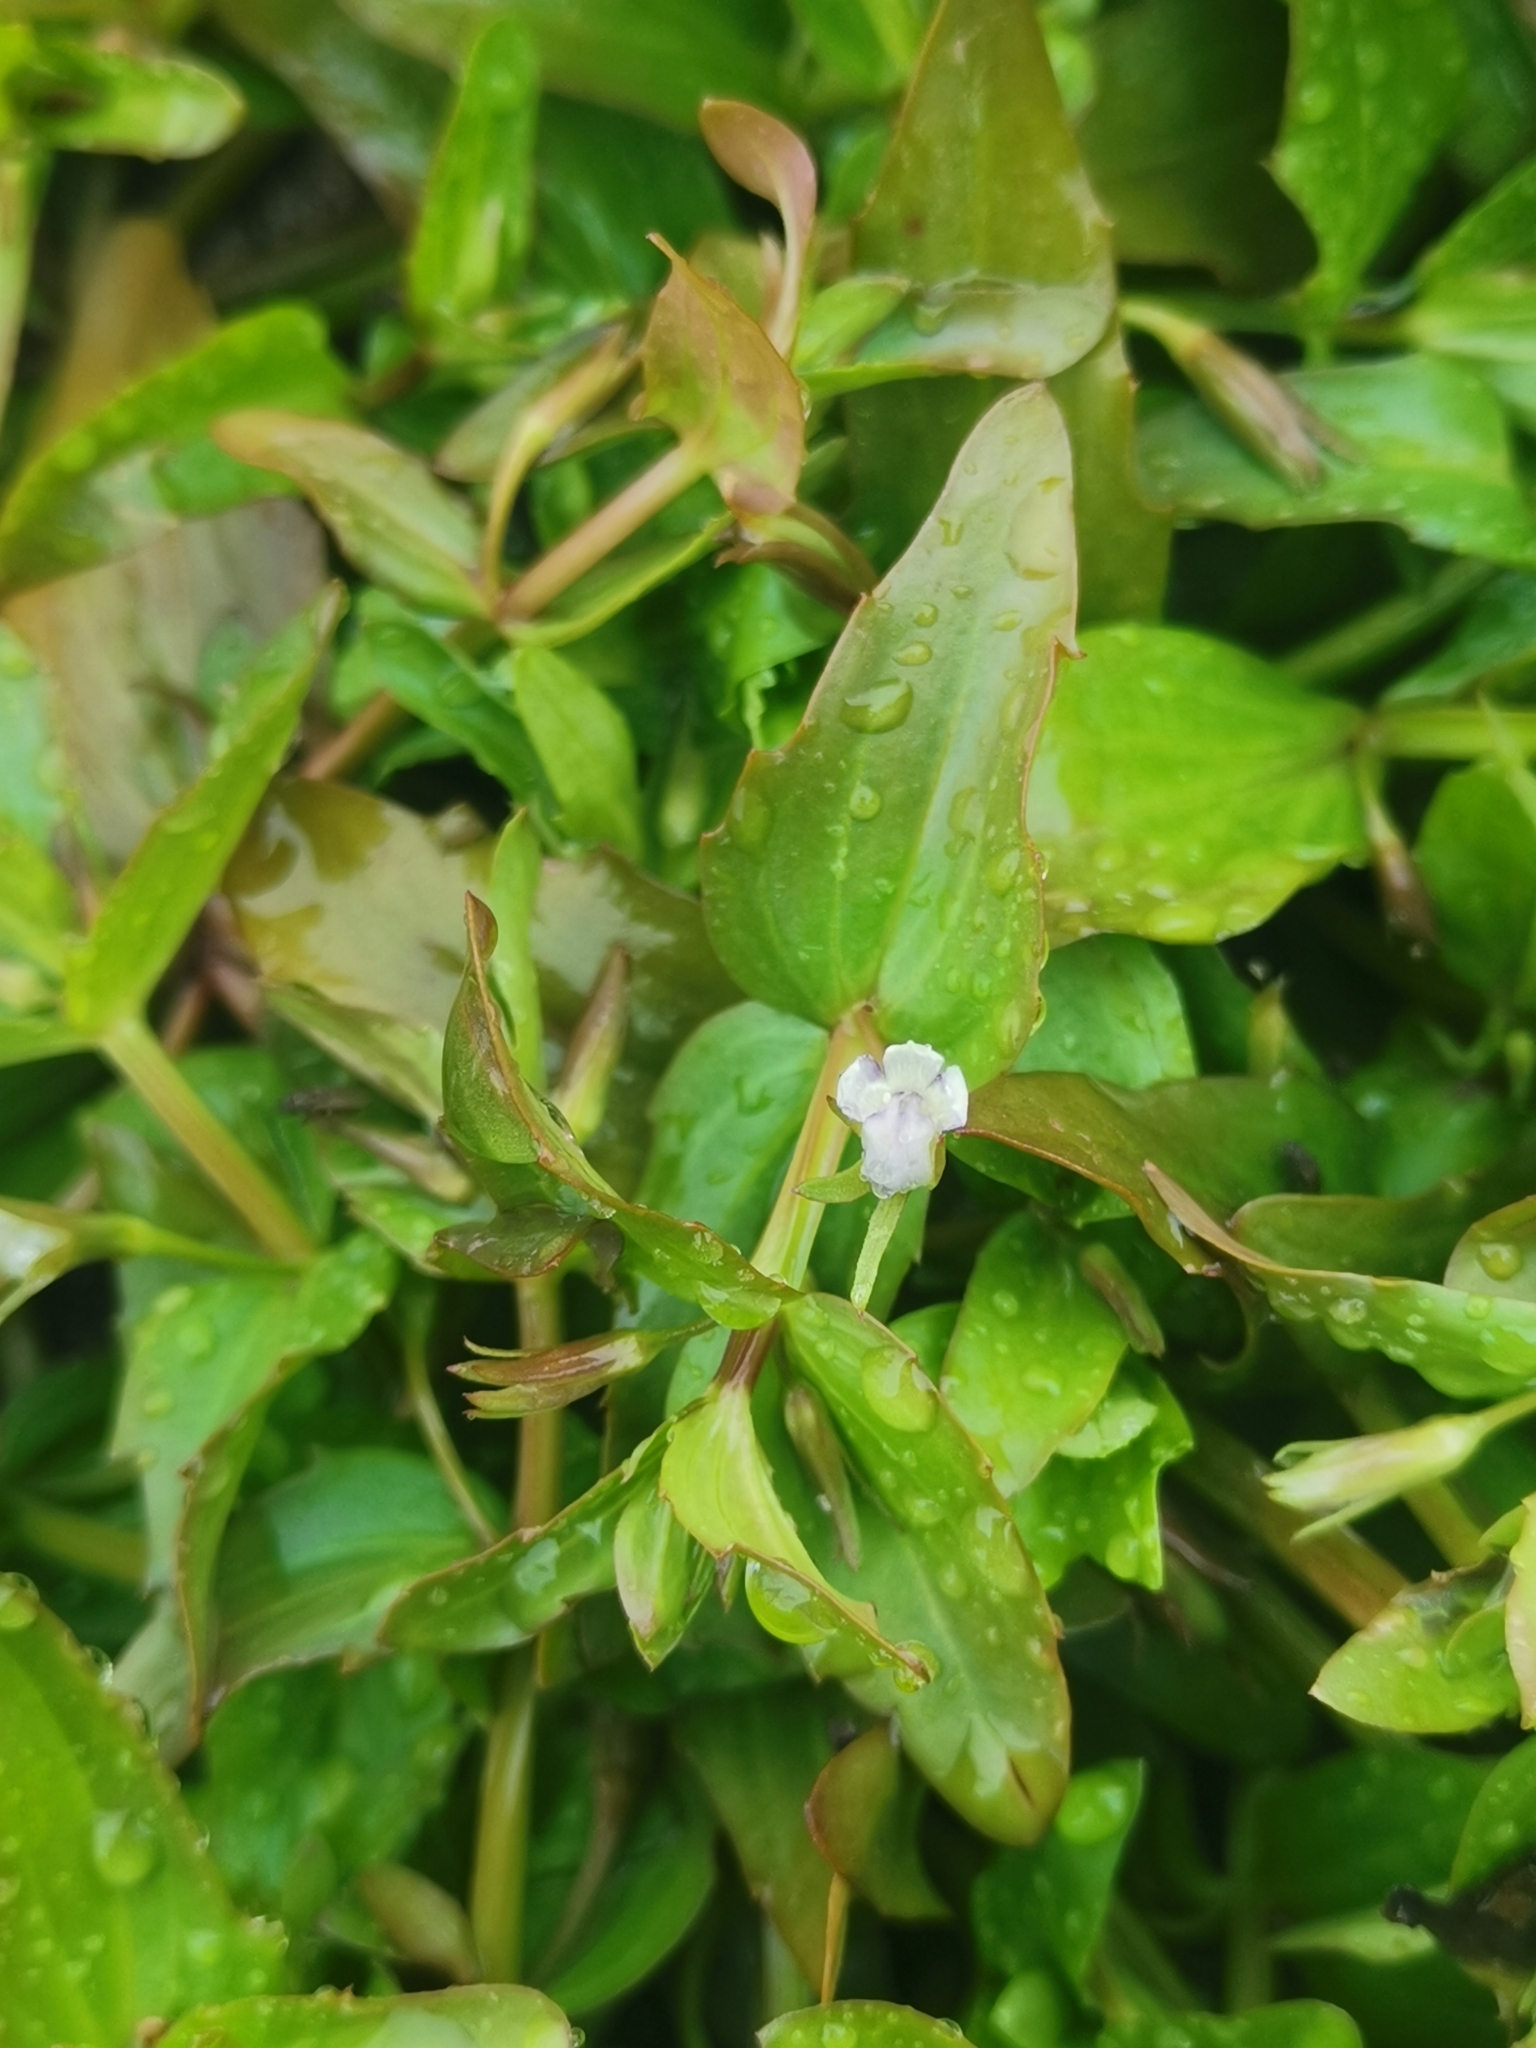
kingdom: Plantae
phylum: Tracheophyta
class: Magnoliopsida
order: Lamiales
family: Linderniaceae
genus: Lindernia
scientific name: Lindernia dubia
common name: Annual false pimpernel
